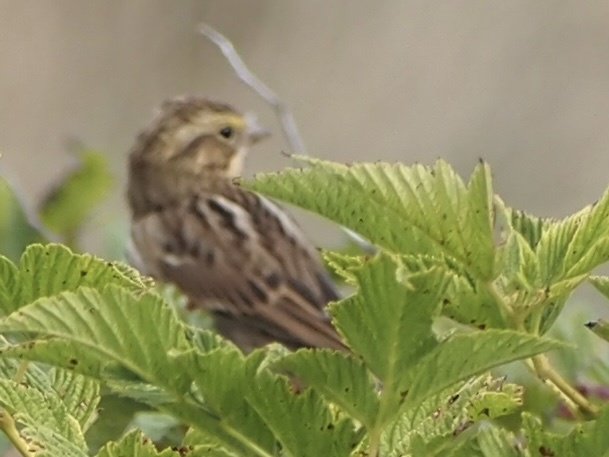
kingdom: Animalia
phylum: Chordata
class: Aves
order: Passeriformes
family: Passerellidae
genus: Passerculus
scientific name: Passerculus sandwichensis
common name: Savannah sparrow
